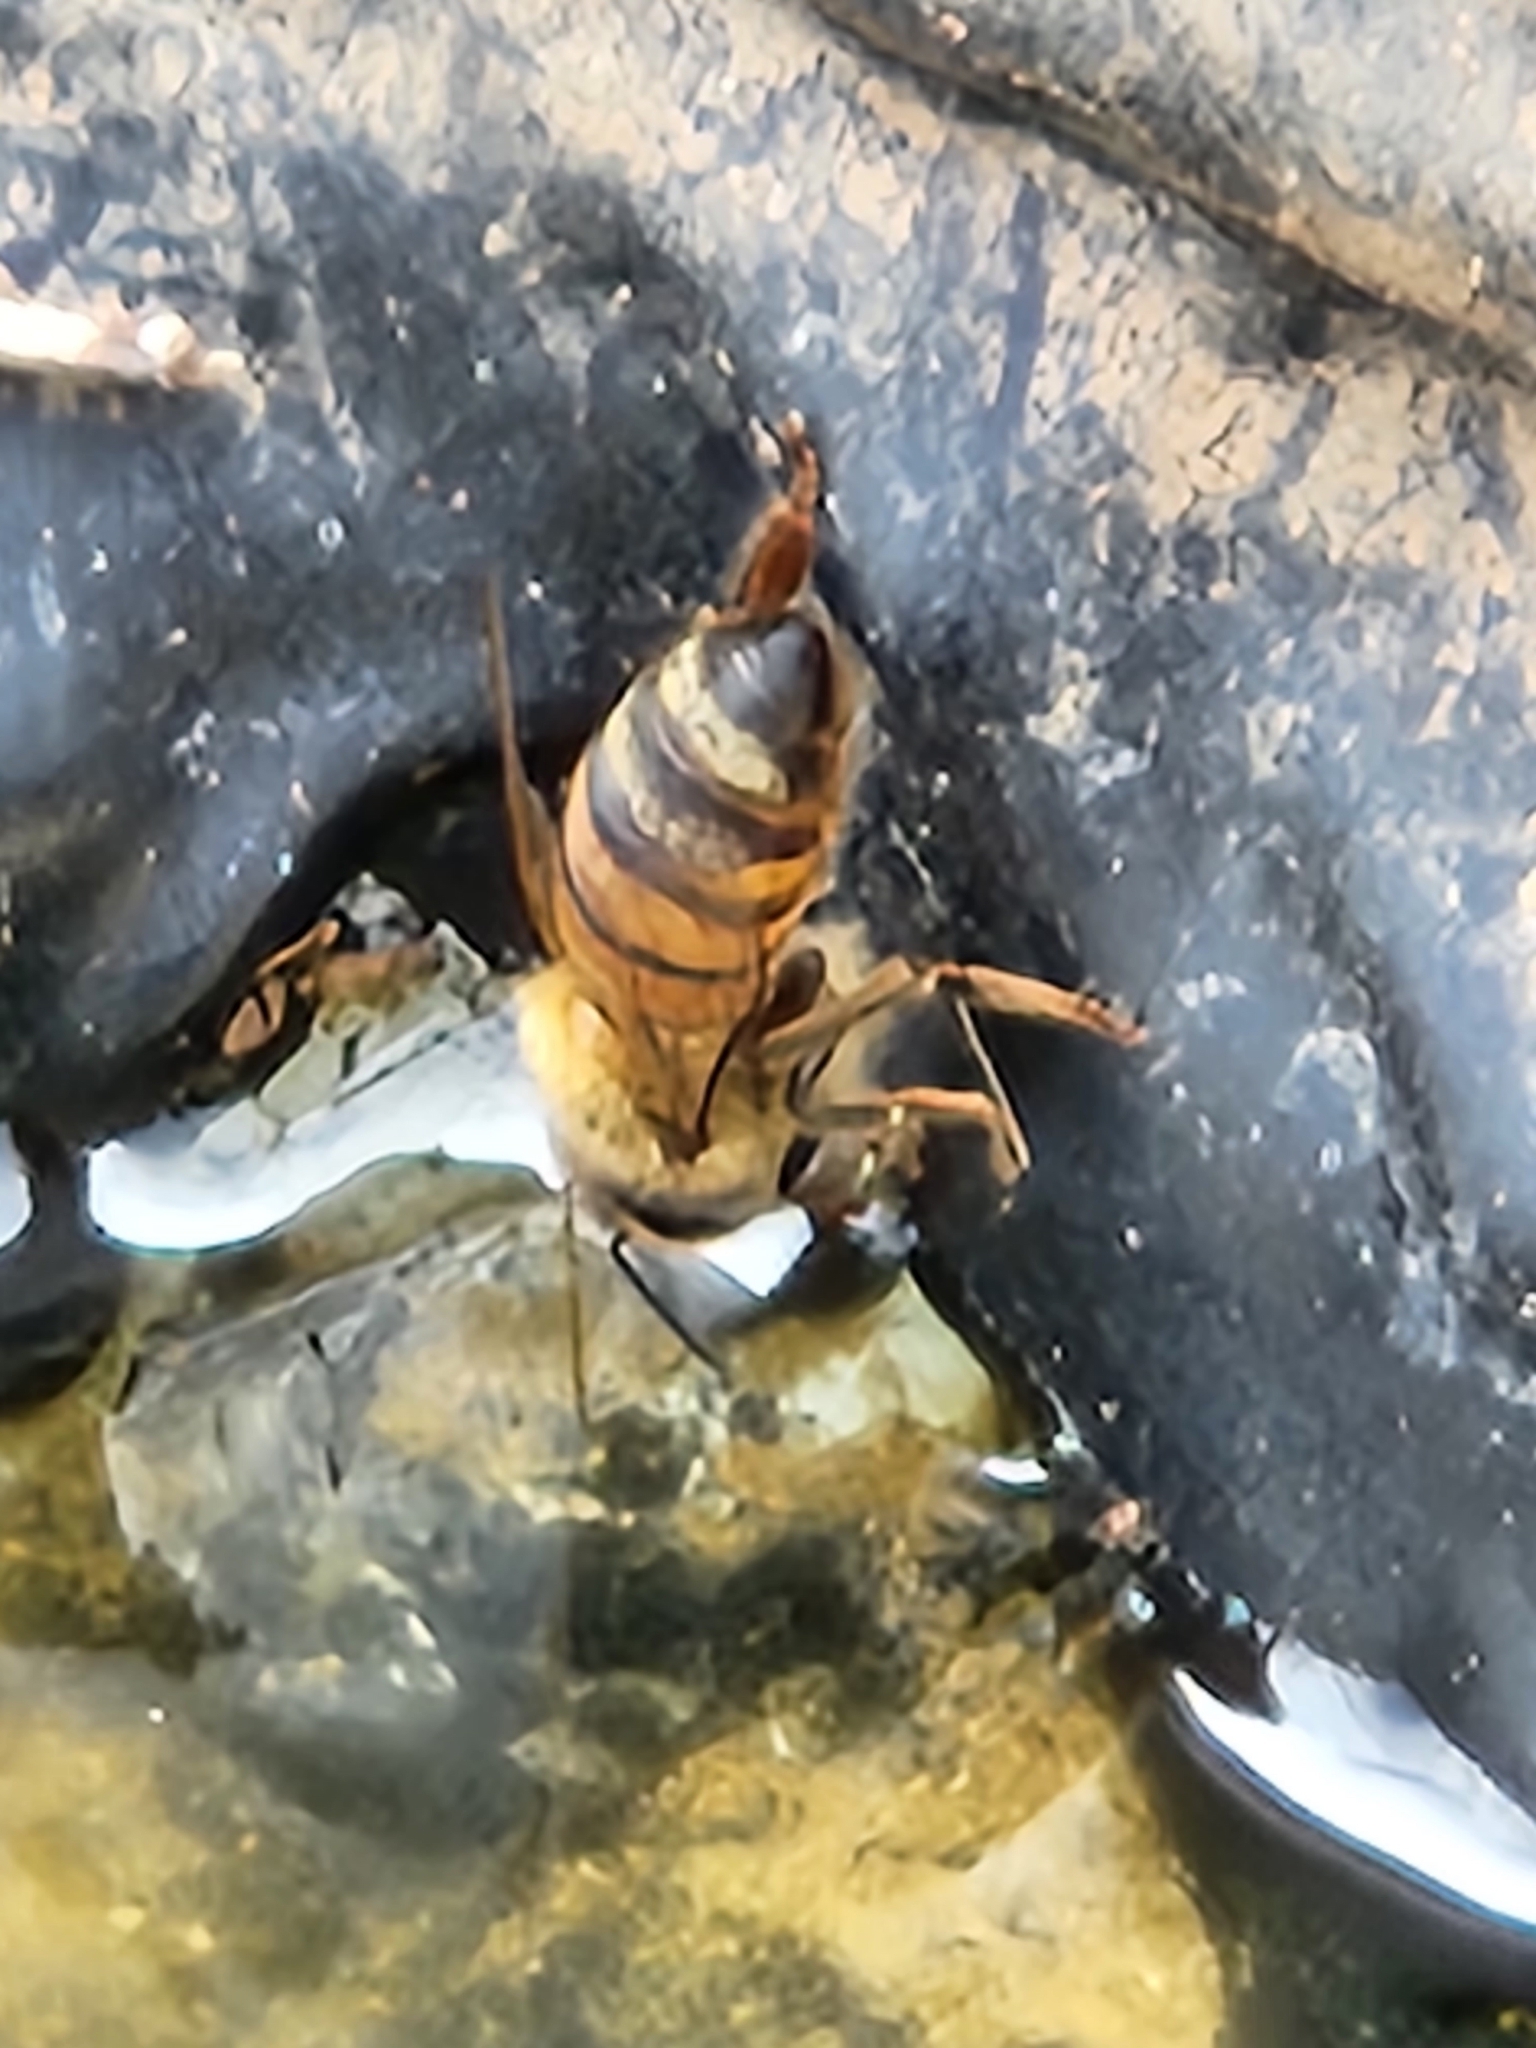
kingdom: Animalia
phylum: Arthropoda
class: Insecta
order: Hymenoptera
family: Apidae
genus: Apis
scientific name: Apis mellifera
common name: Honey bee
